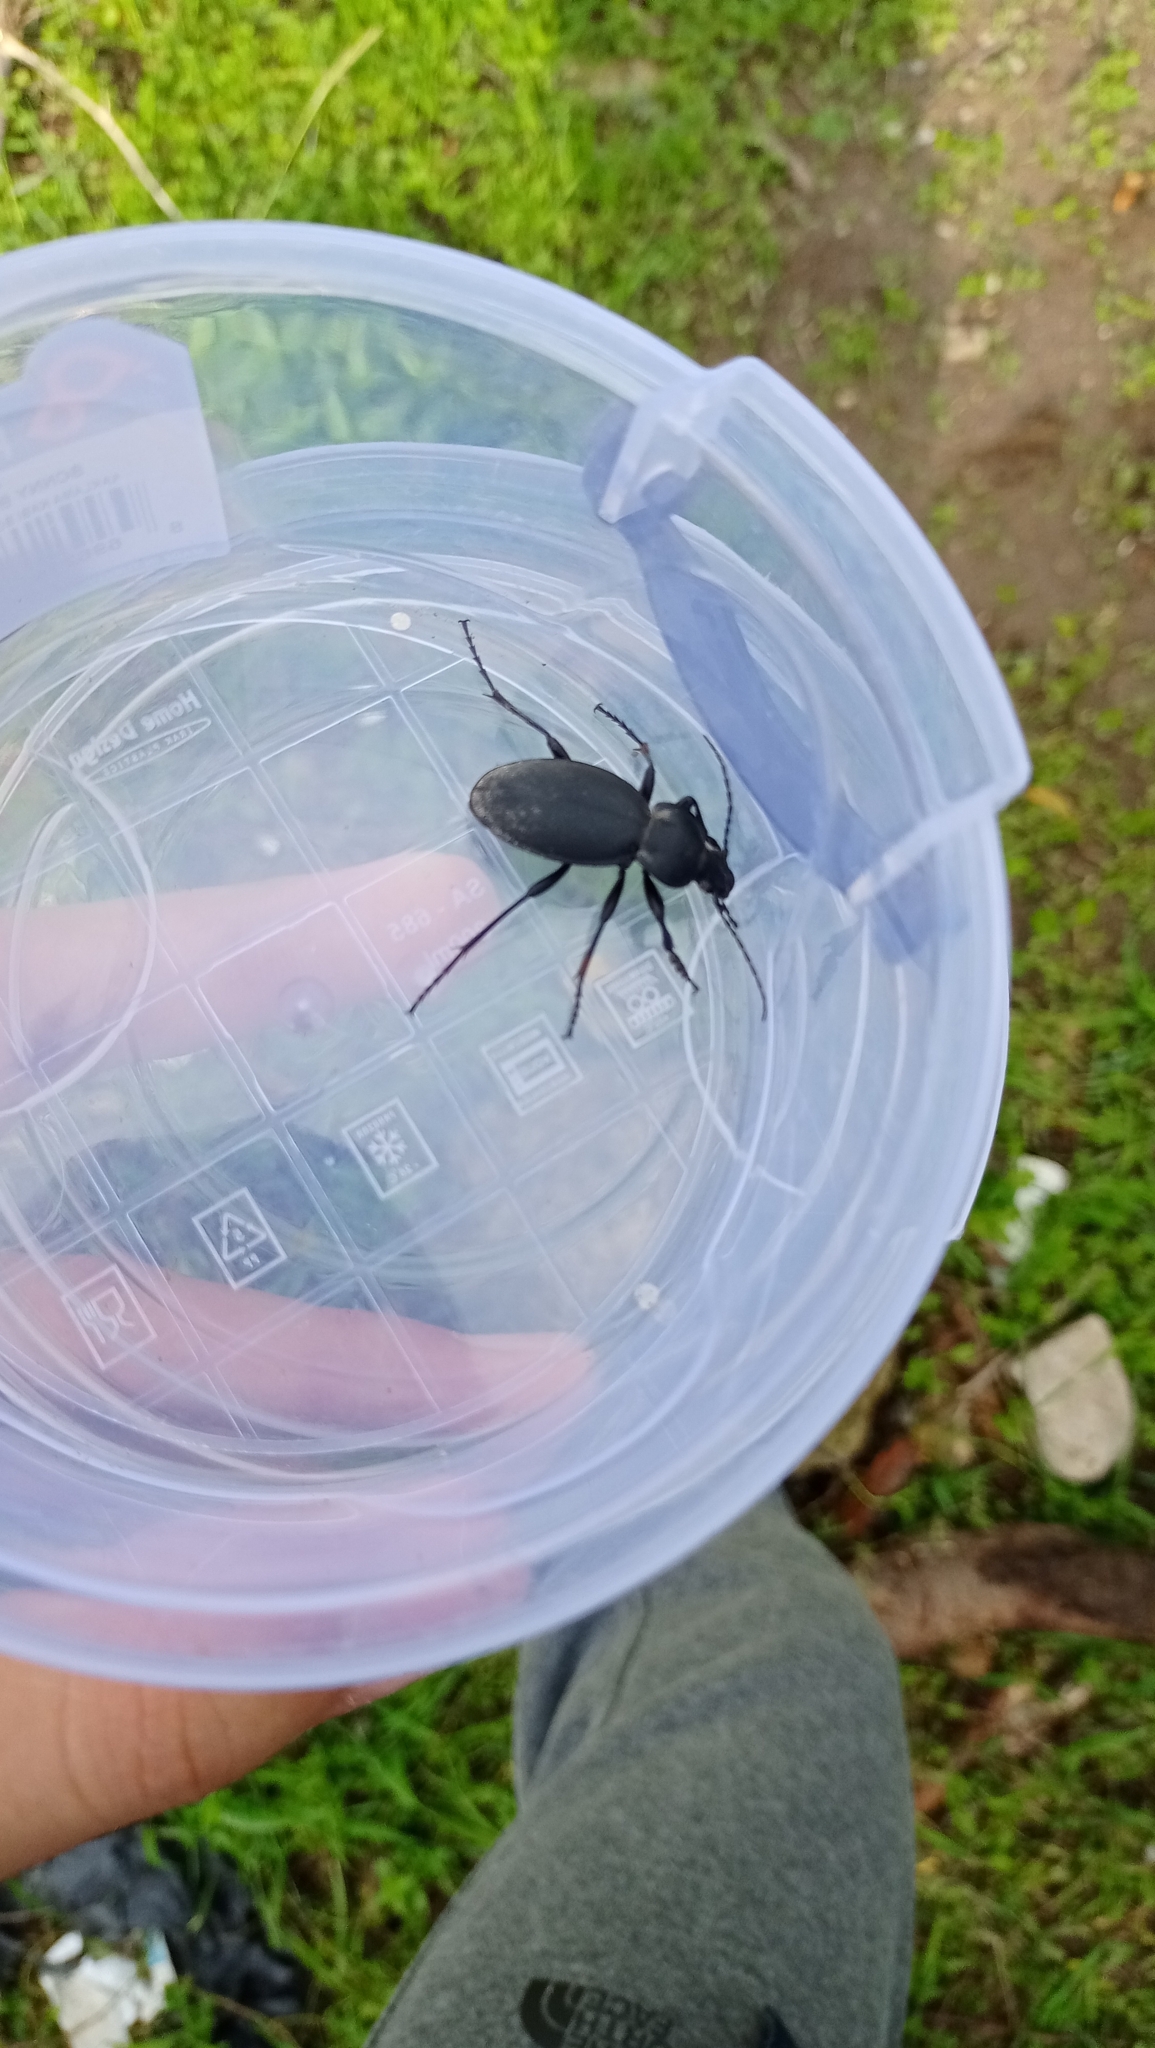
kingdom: Animalia
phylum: Arthropoda
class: Insecta
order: Coleoptera
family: Carabidae
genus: Carabus
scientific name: Carabus coriaceus
